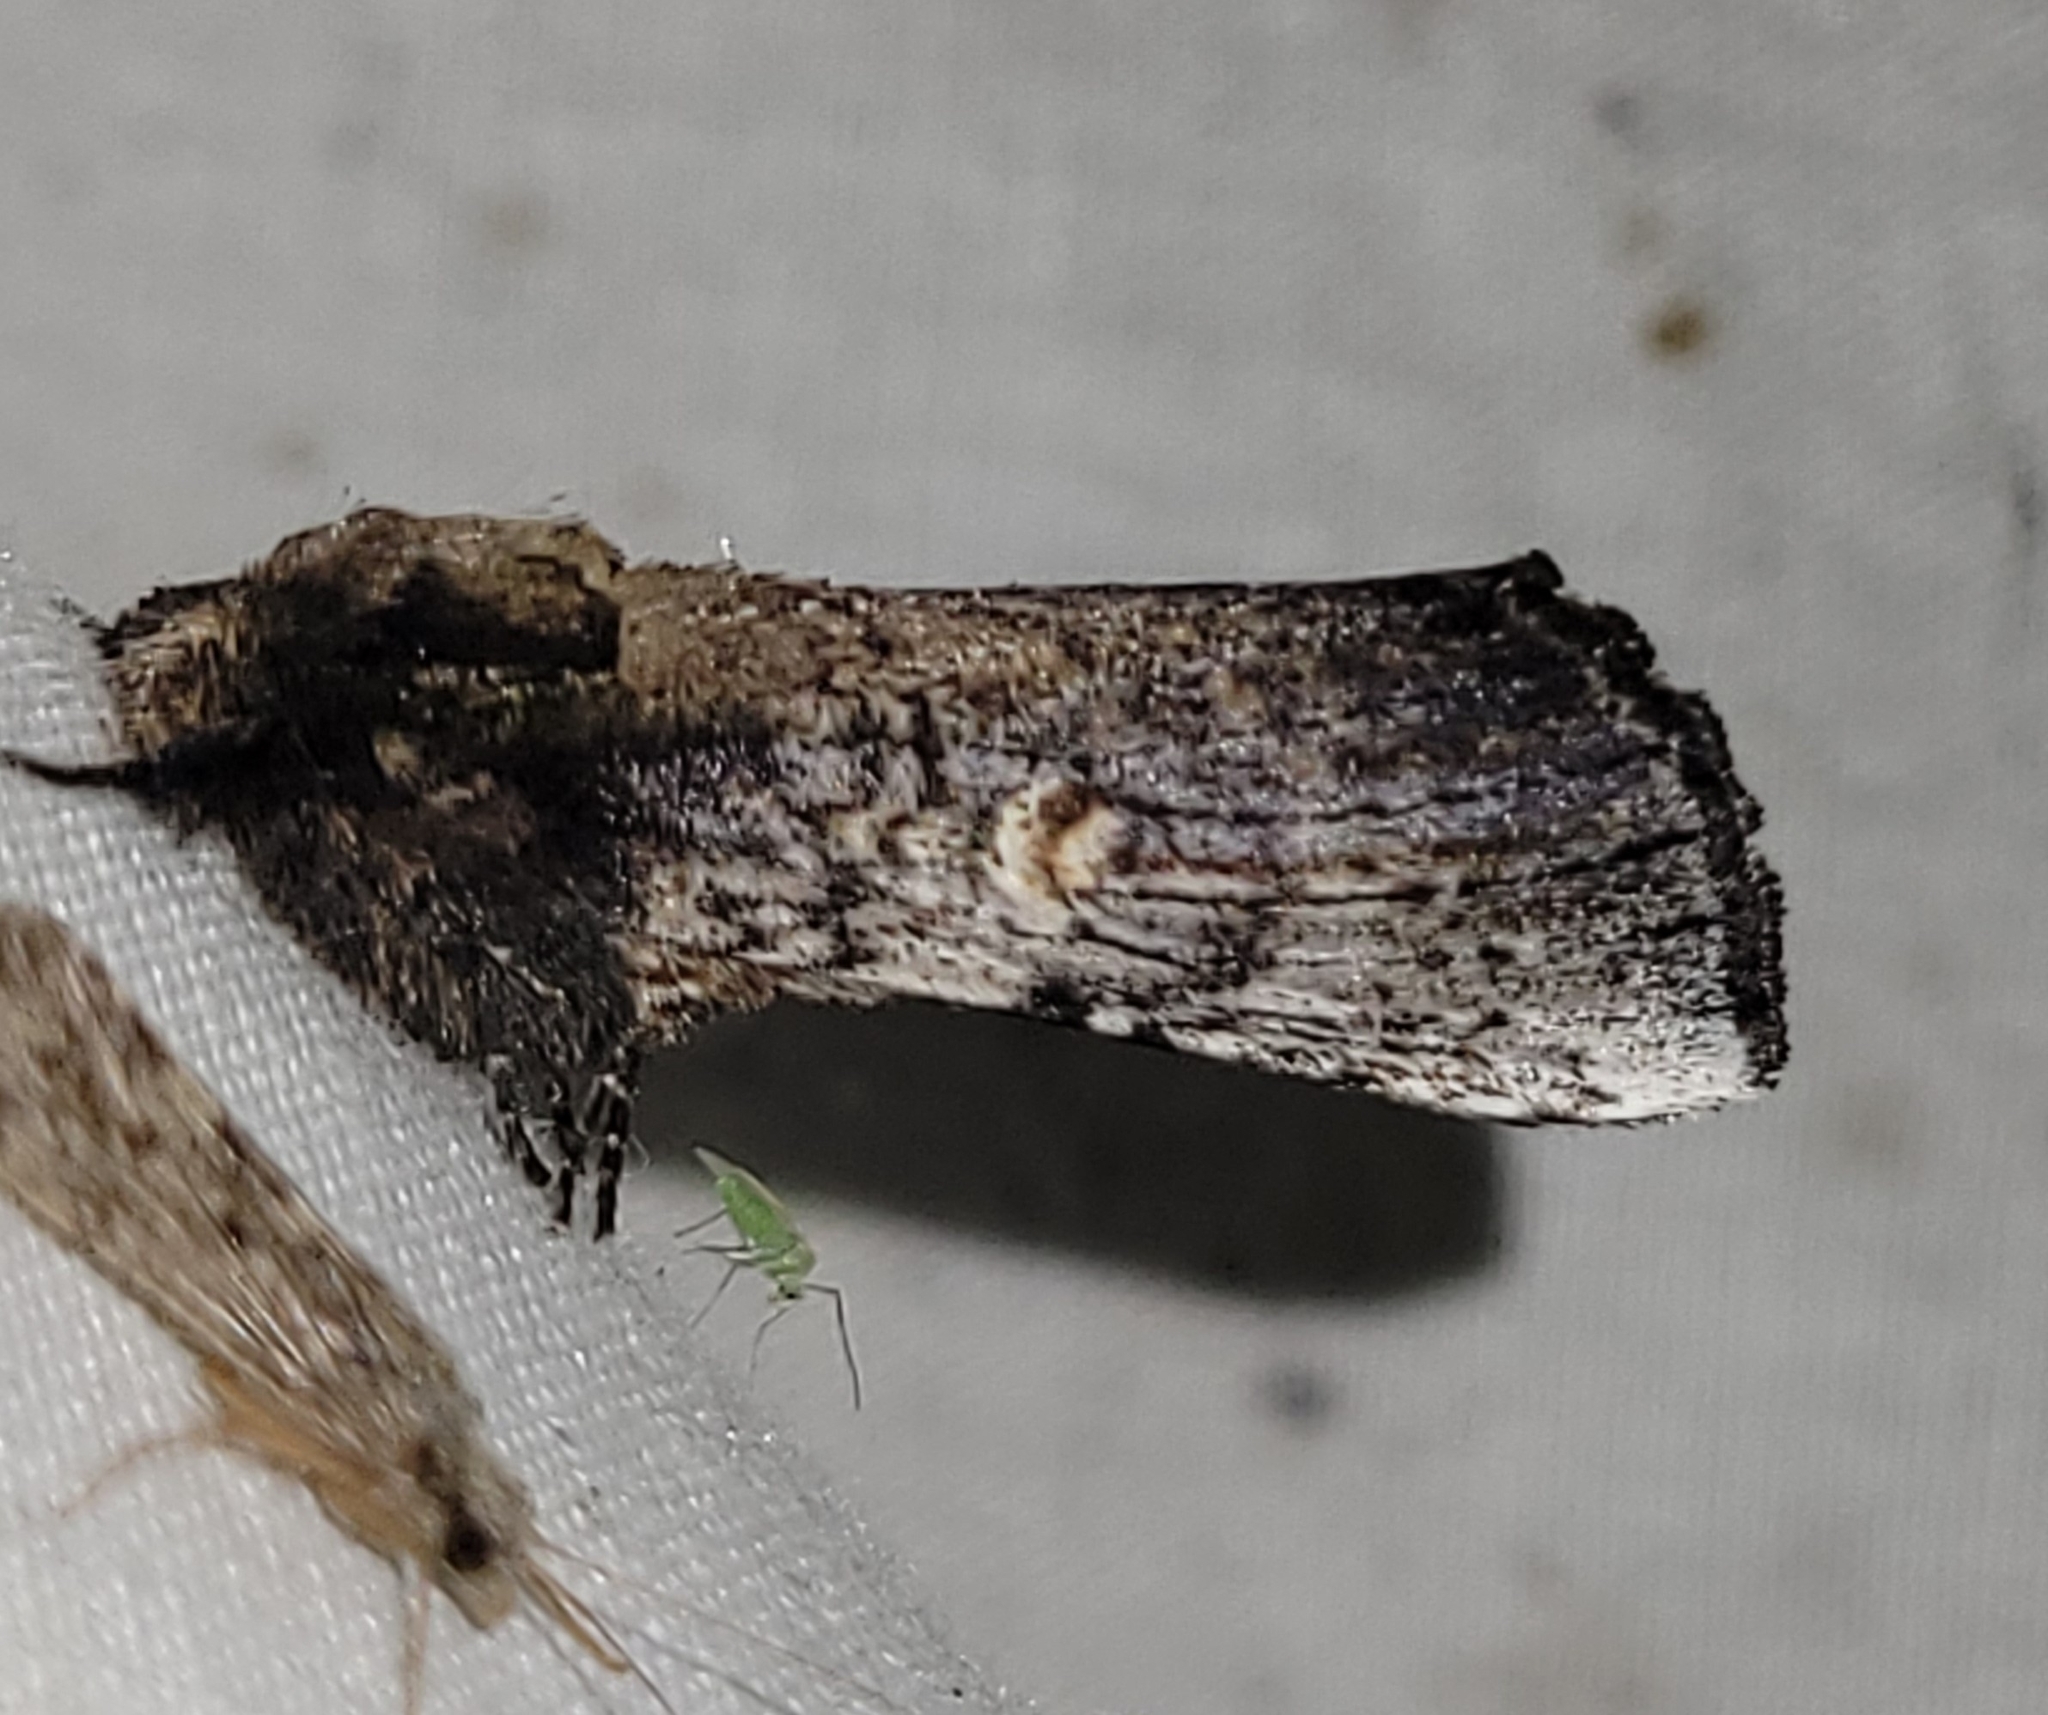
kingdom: Animalia
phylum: Arthropoda
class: Insecta
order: Lepidoptera
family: Notodontidae
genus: Schizura
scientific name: Schizura ipomaeae
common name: Morning-glory prominent
